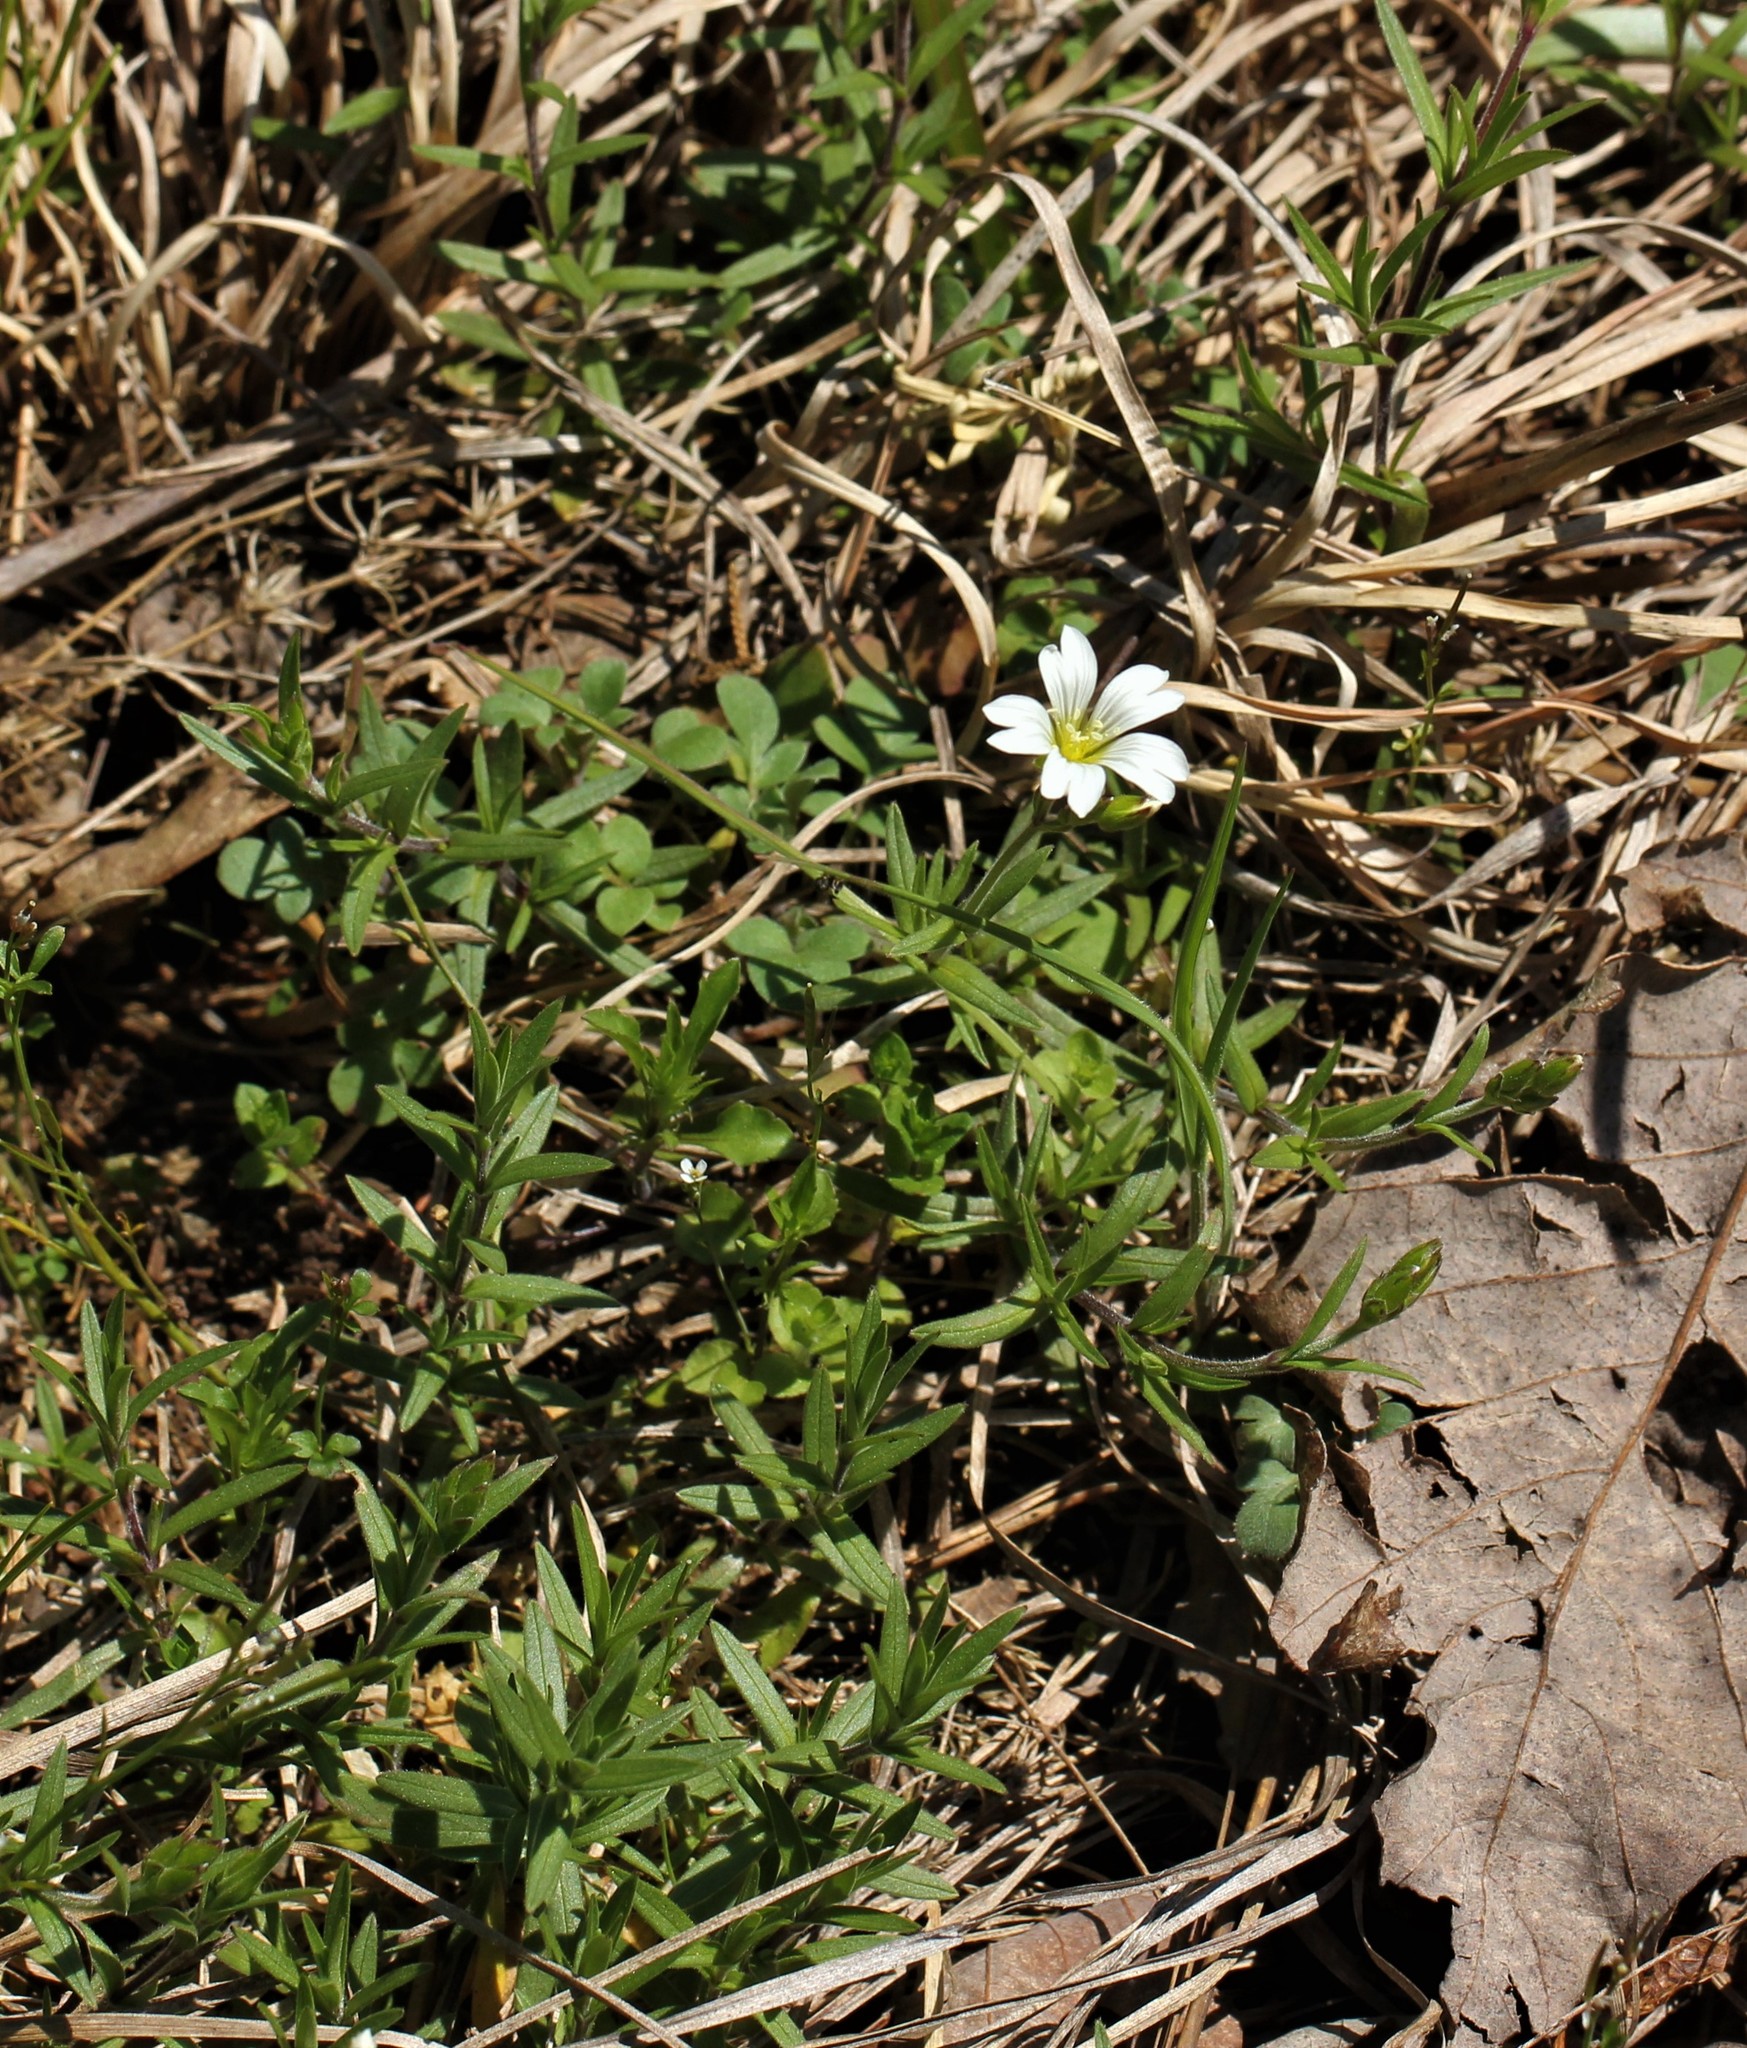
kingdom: Plantae
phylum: Tracheophyta
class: Magnoliopsida
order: Caryophyllales
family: Caryophyllaceae
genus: Cerastium
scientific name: Cerastium arvense
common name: Field mouse-ear
